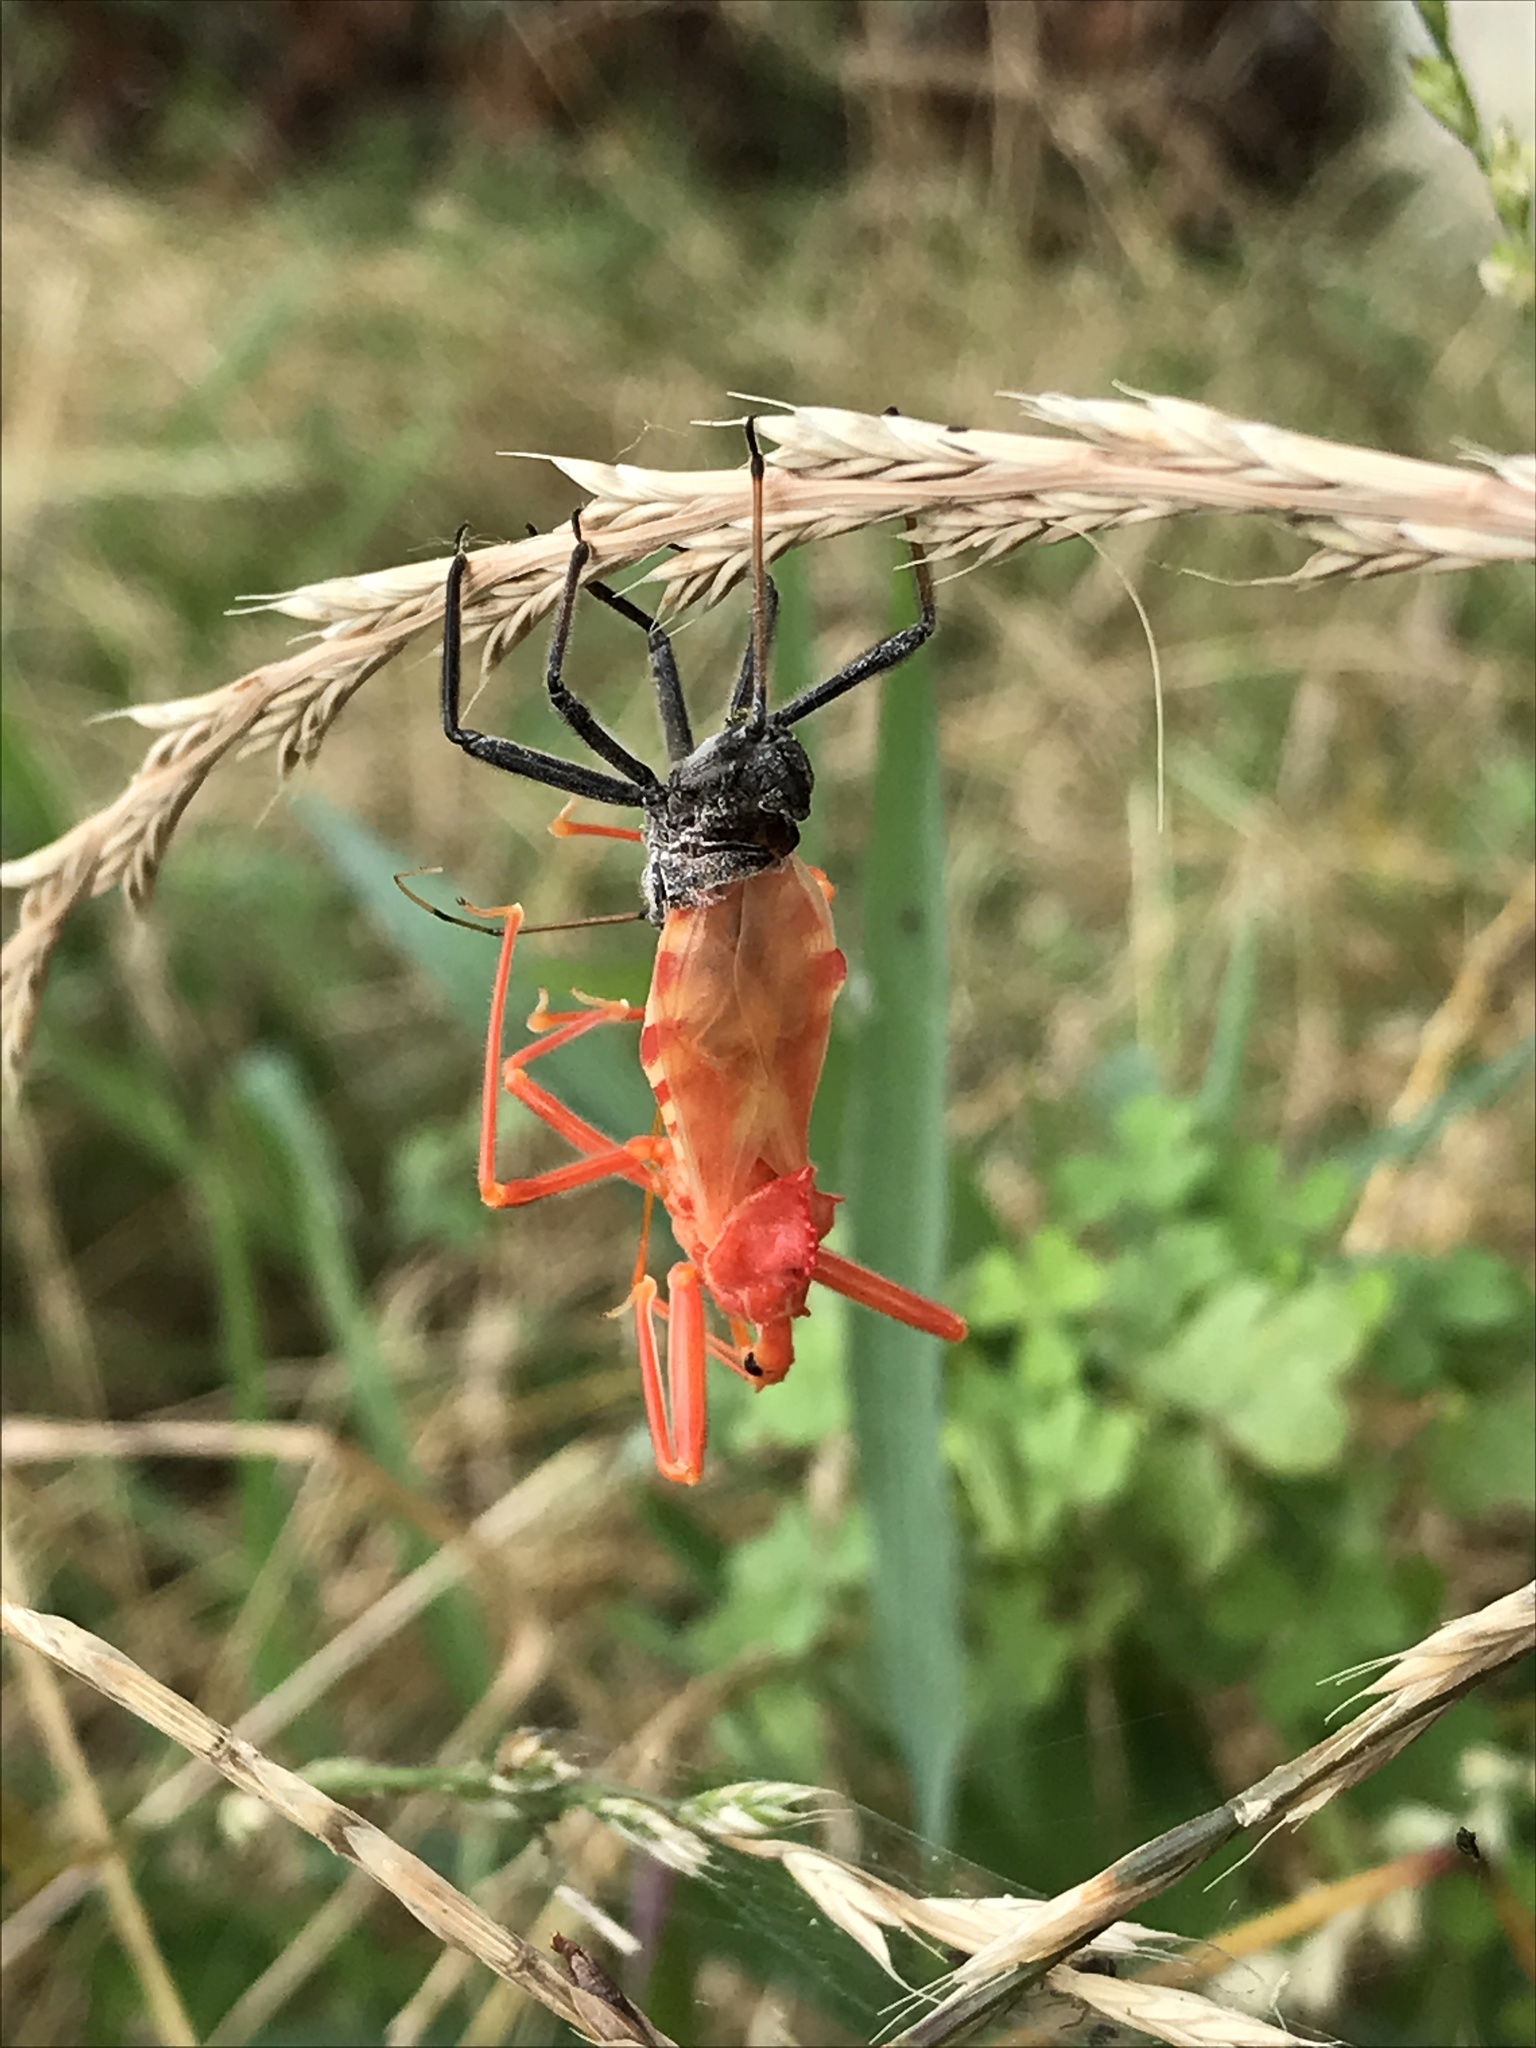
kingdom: Animalia
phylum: Arthropoda
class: Insecta
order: Hemiptera
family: Reduviidae
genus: Arilus
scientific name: Arilus cristatus
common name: North american wheel bug
